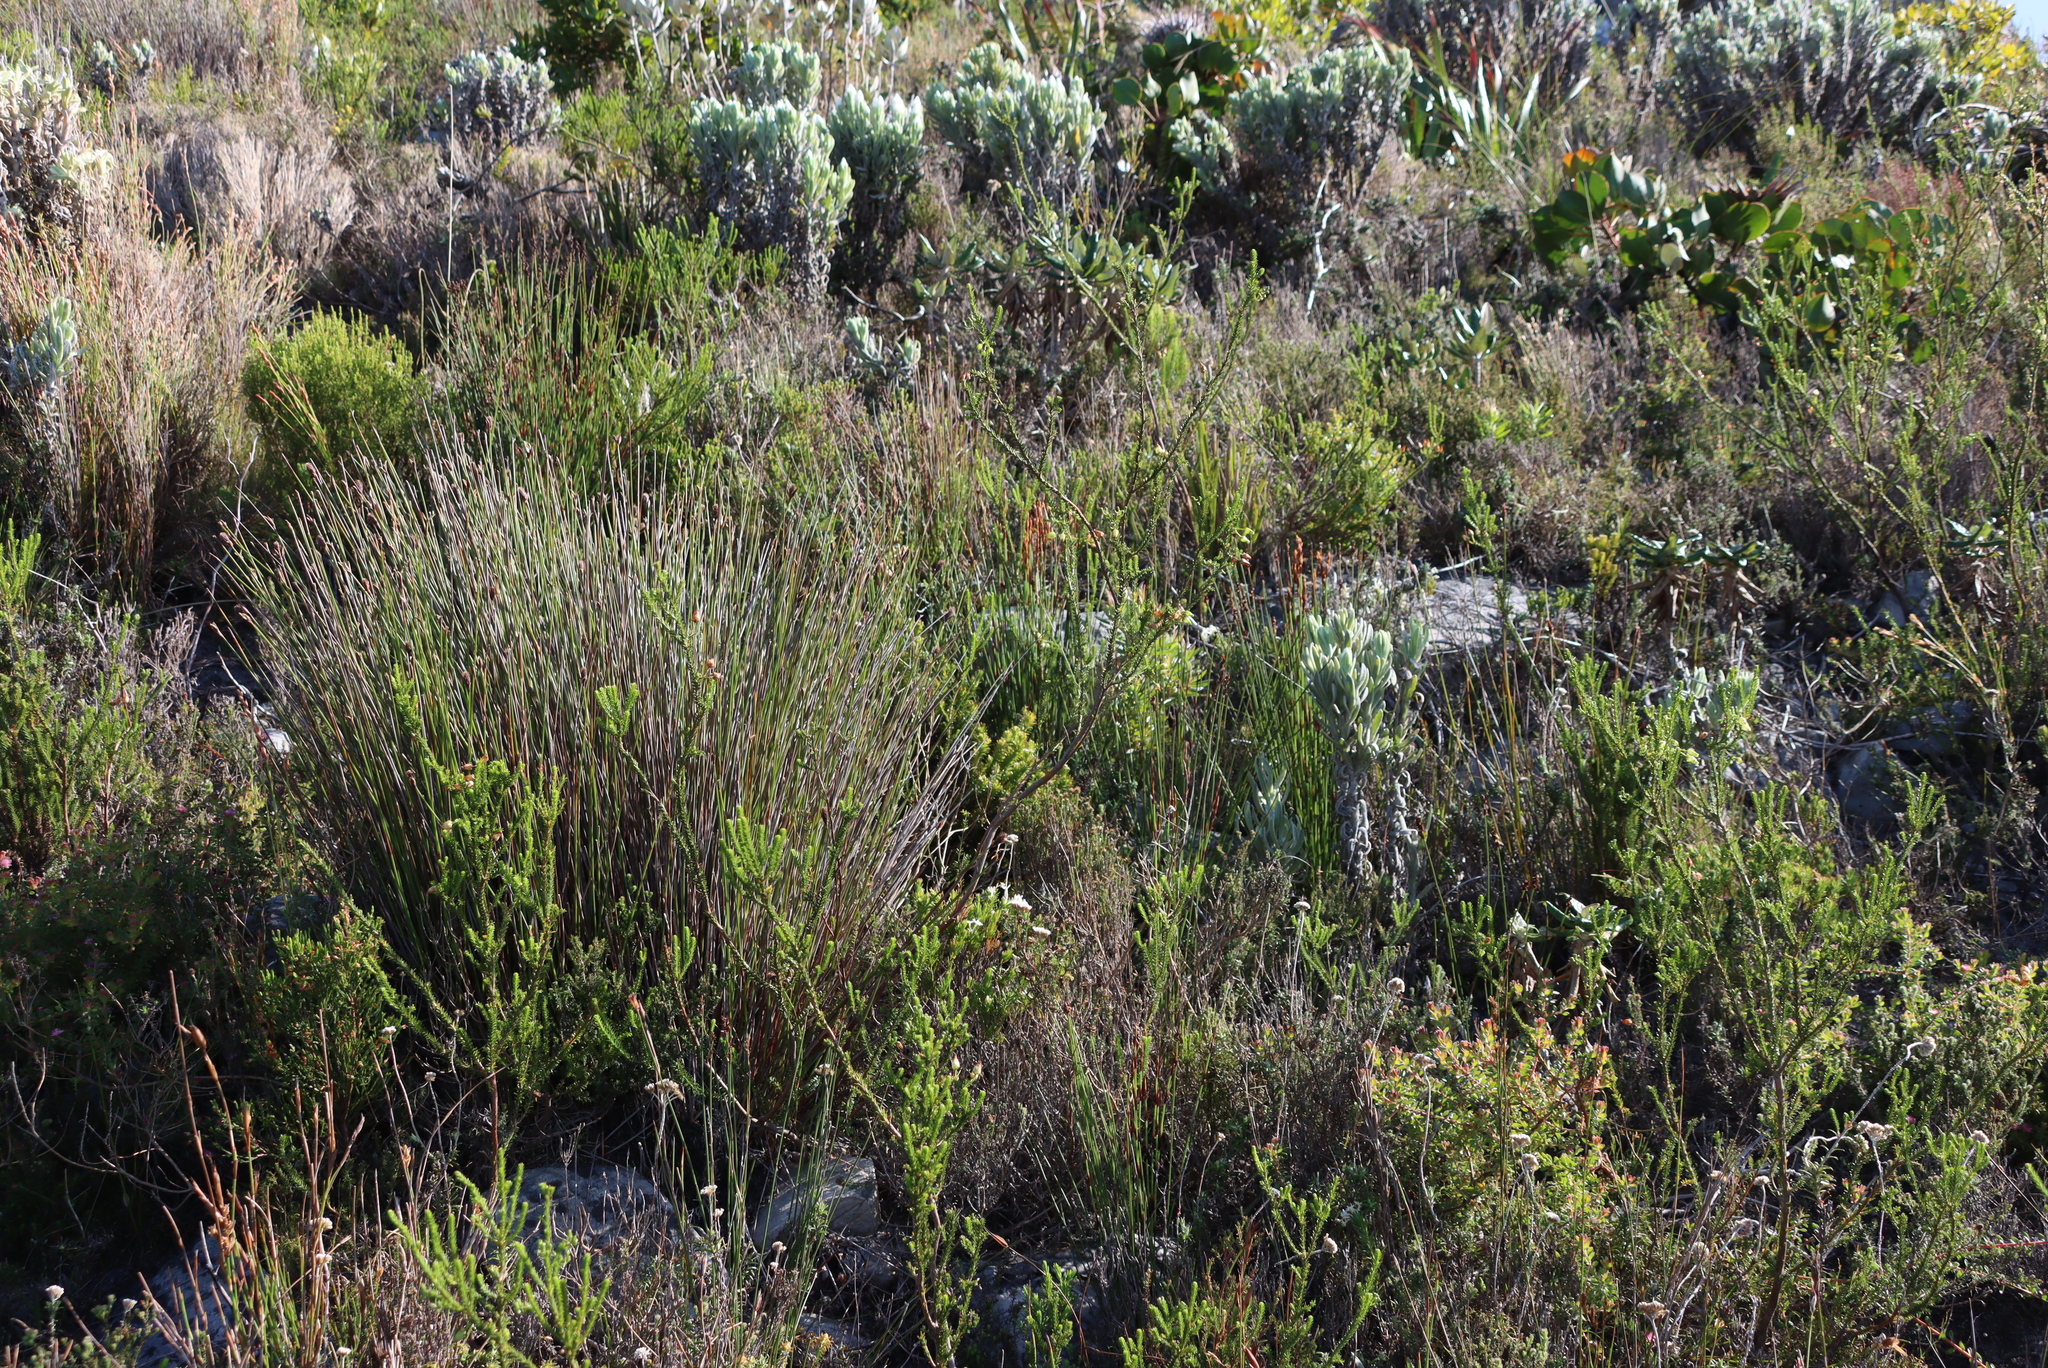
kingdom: Plantae
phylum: Tracheophyta
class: Magnoliopsida
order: Asterales
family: Asteraceae
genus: Syncarpha
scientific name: Syncarpha vestita
